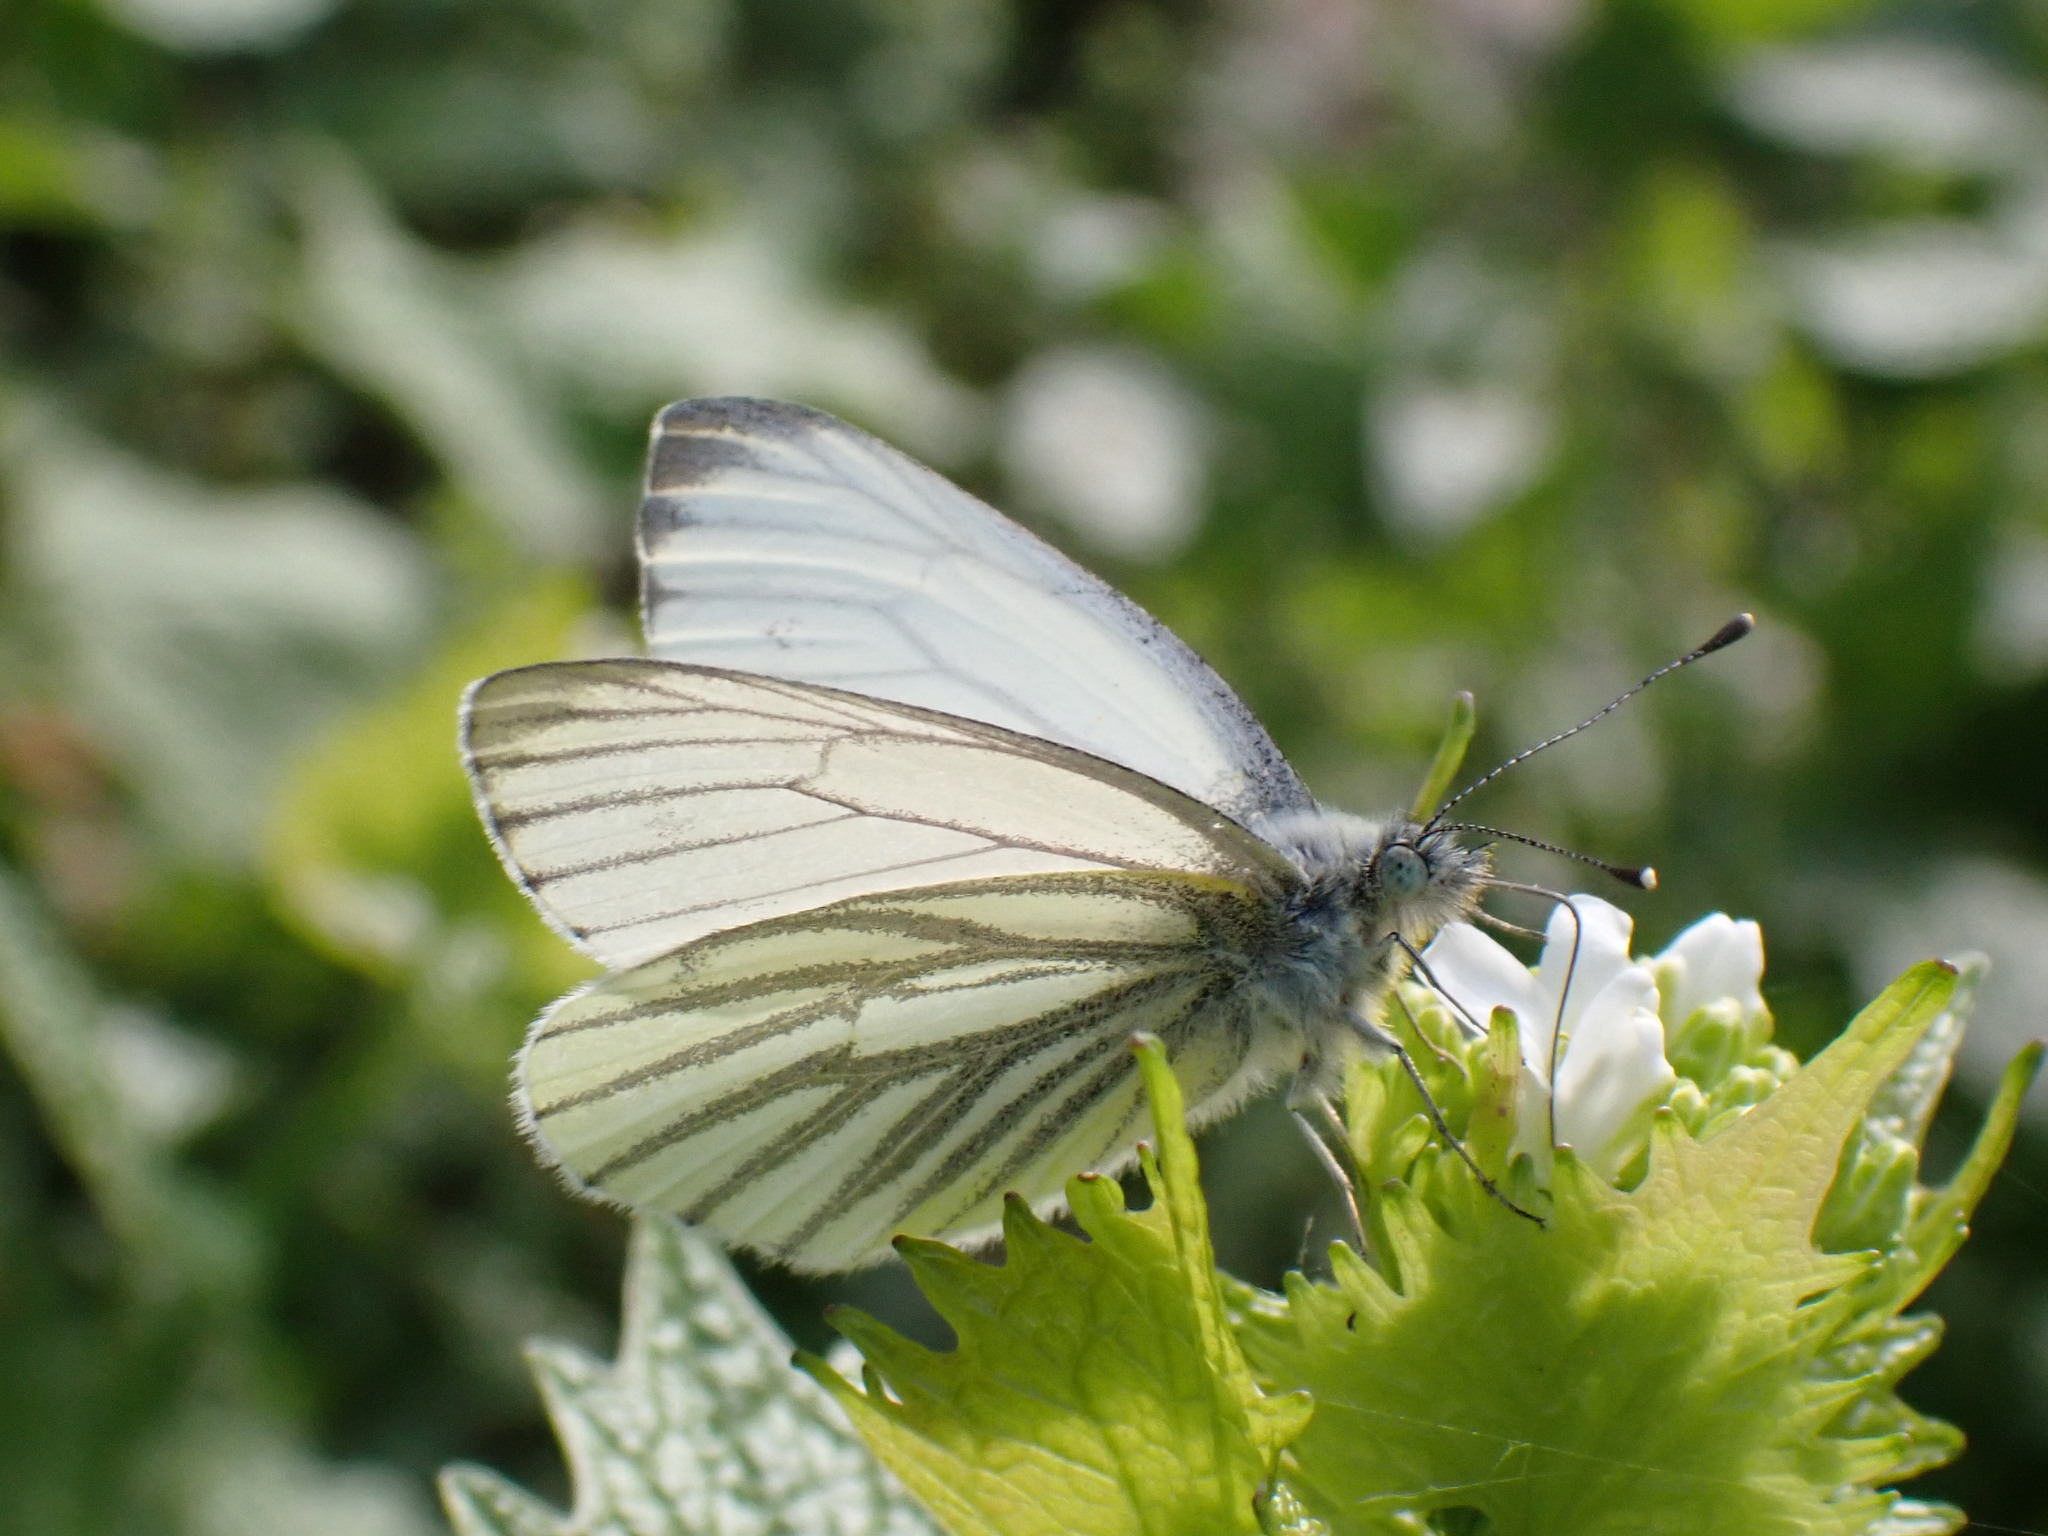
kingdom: Animalia
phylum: Arthropoda
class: Insecta
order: Lepidoptera
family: Pieridae
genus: Pieris
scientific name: Pieris napi
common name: Green-veined white
